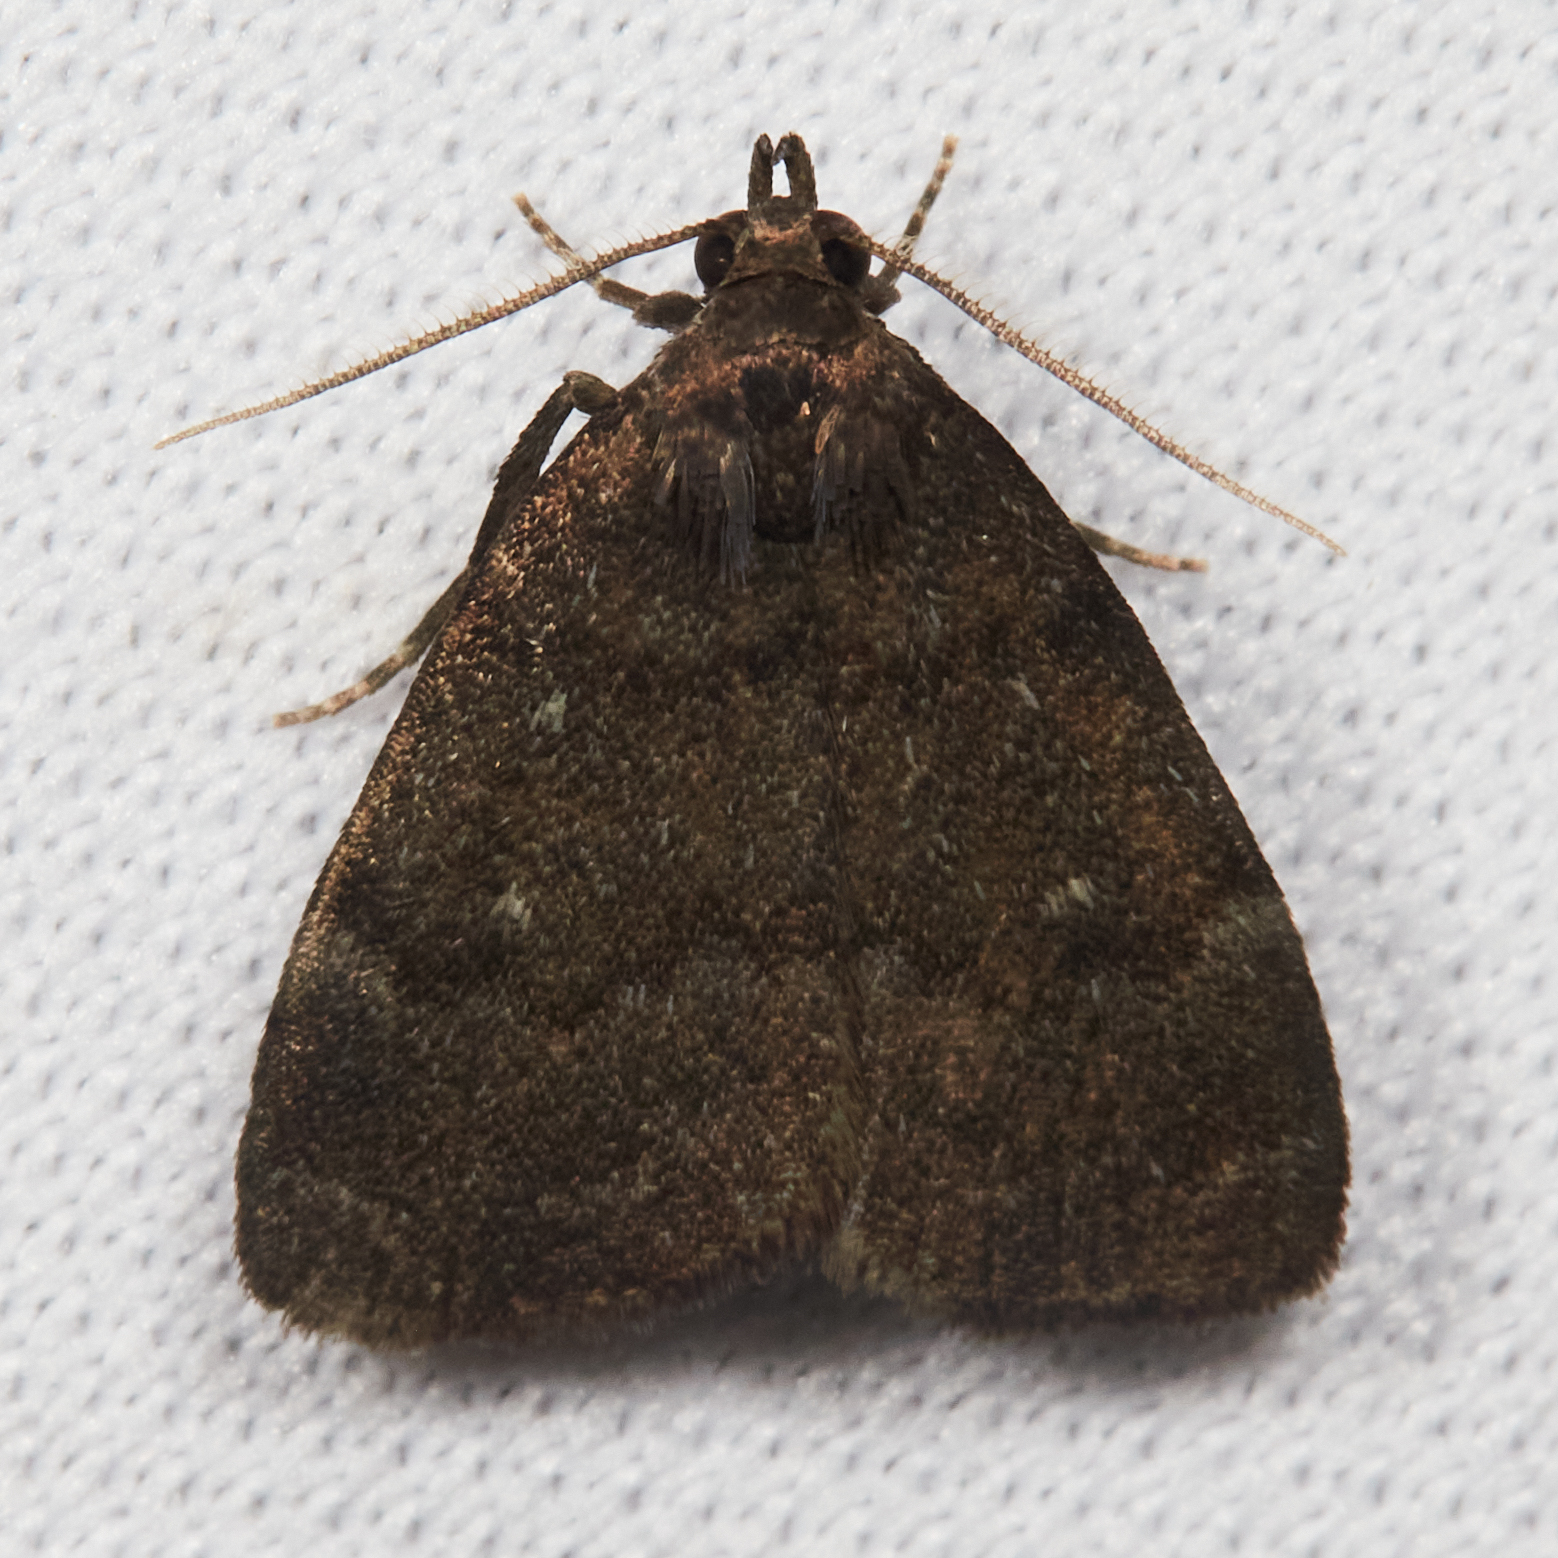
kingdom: Animalia
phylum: Arthropoda
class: Insecta
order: Lepidoptera
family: Erebidae
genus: Idia
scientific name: Idia rotundalis
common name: Rotund idia moth
